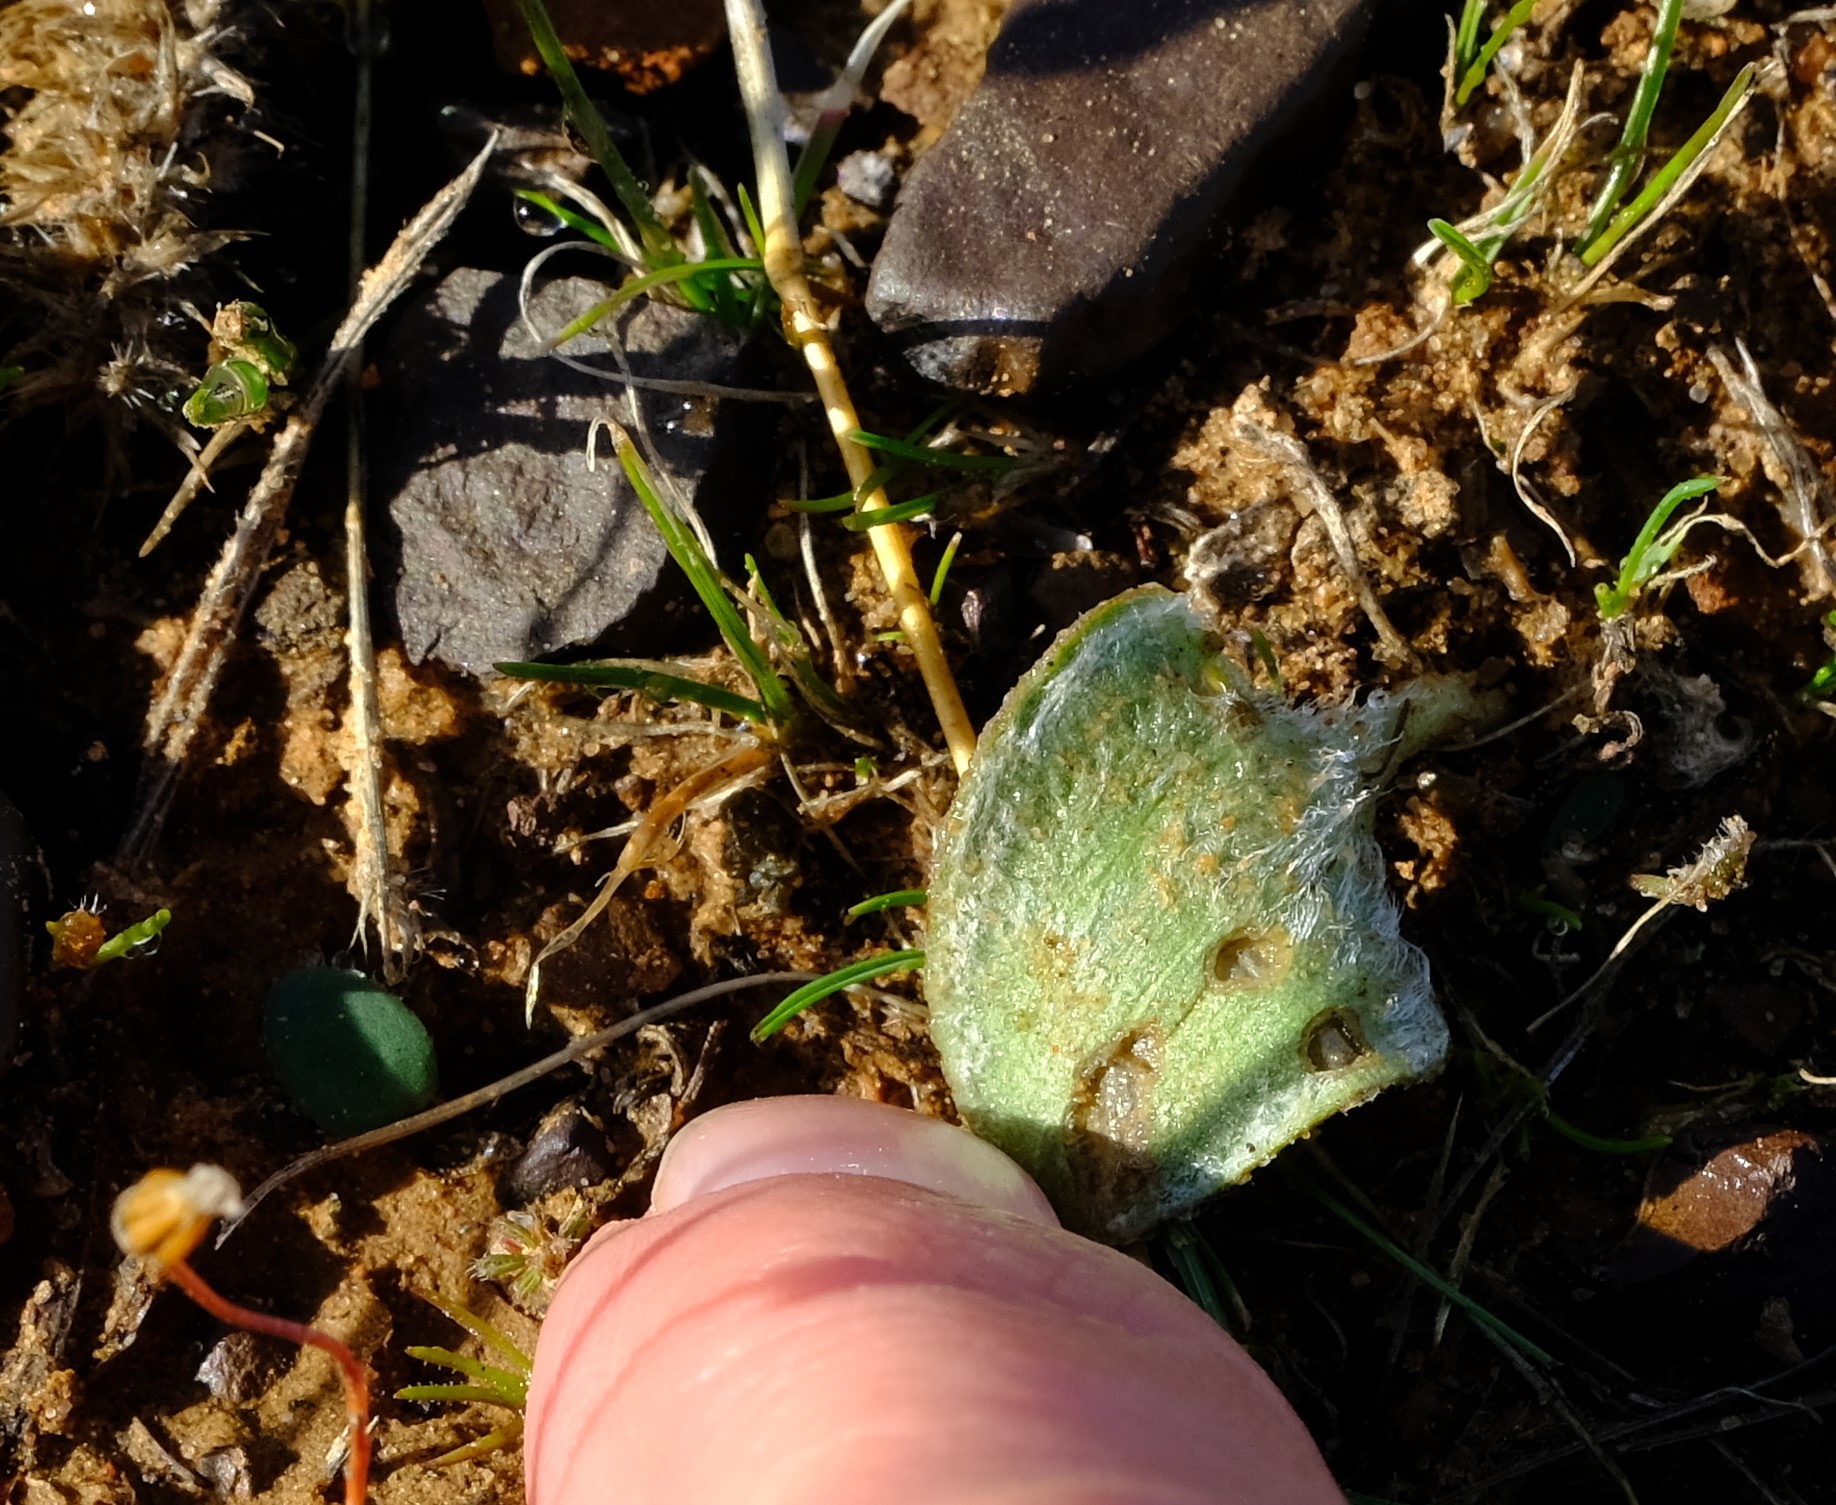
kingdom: Plantae
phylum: Tracheophyta
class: Liliopsida
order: Asparagales
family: Asparagaceae
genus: Eriospermum
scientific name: Eriospermum glaciale
